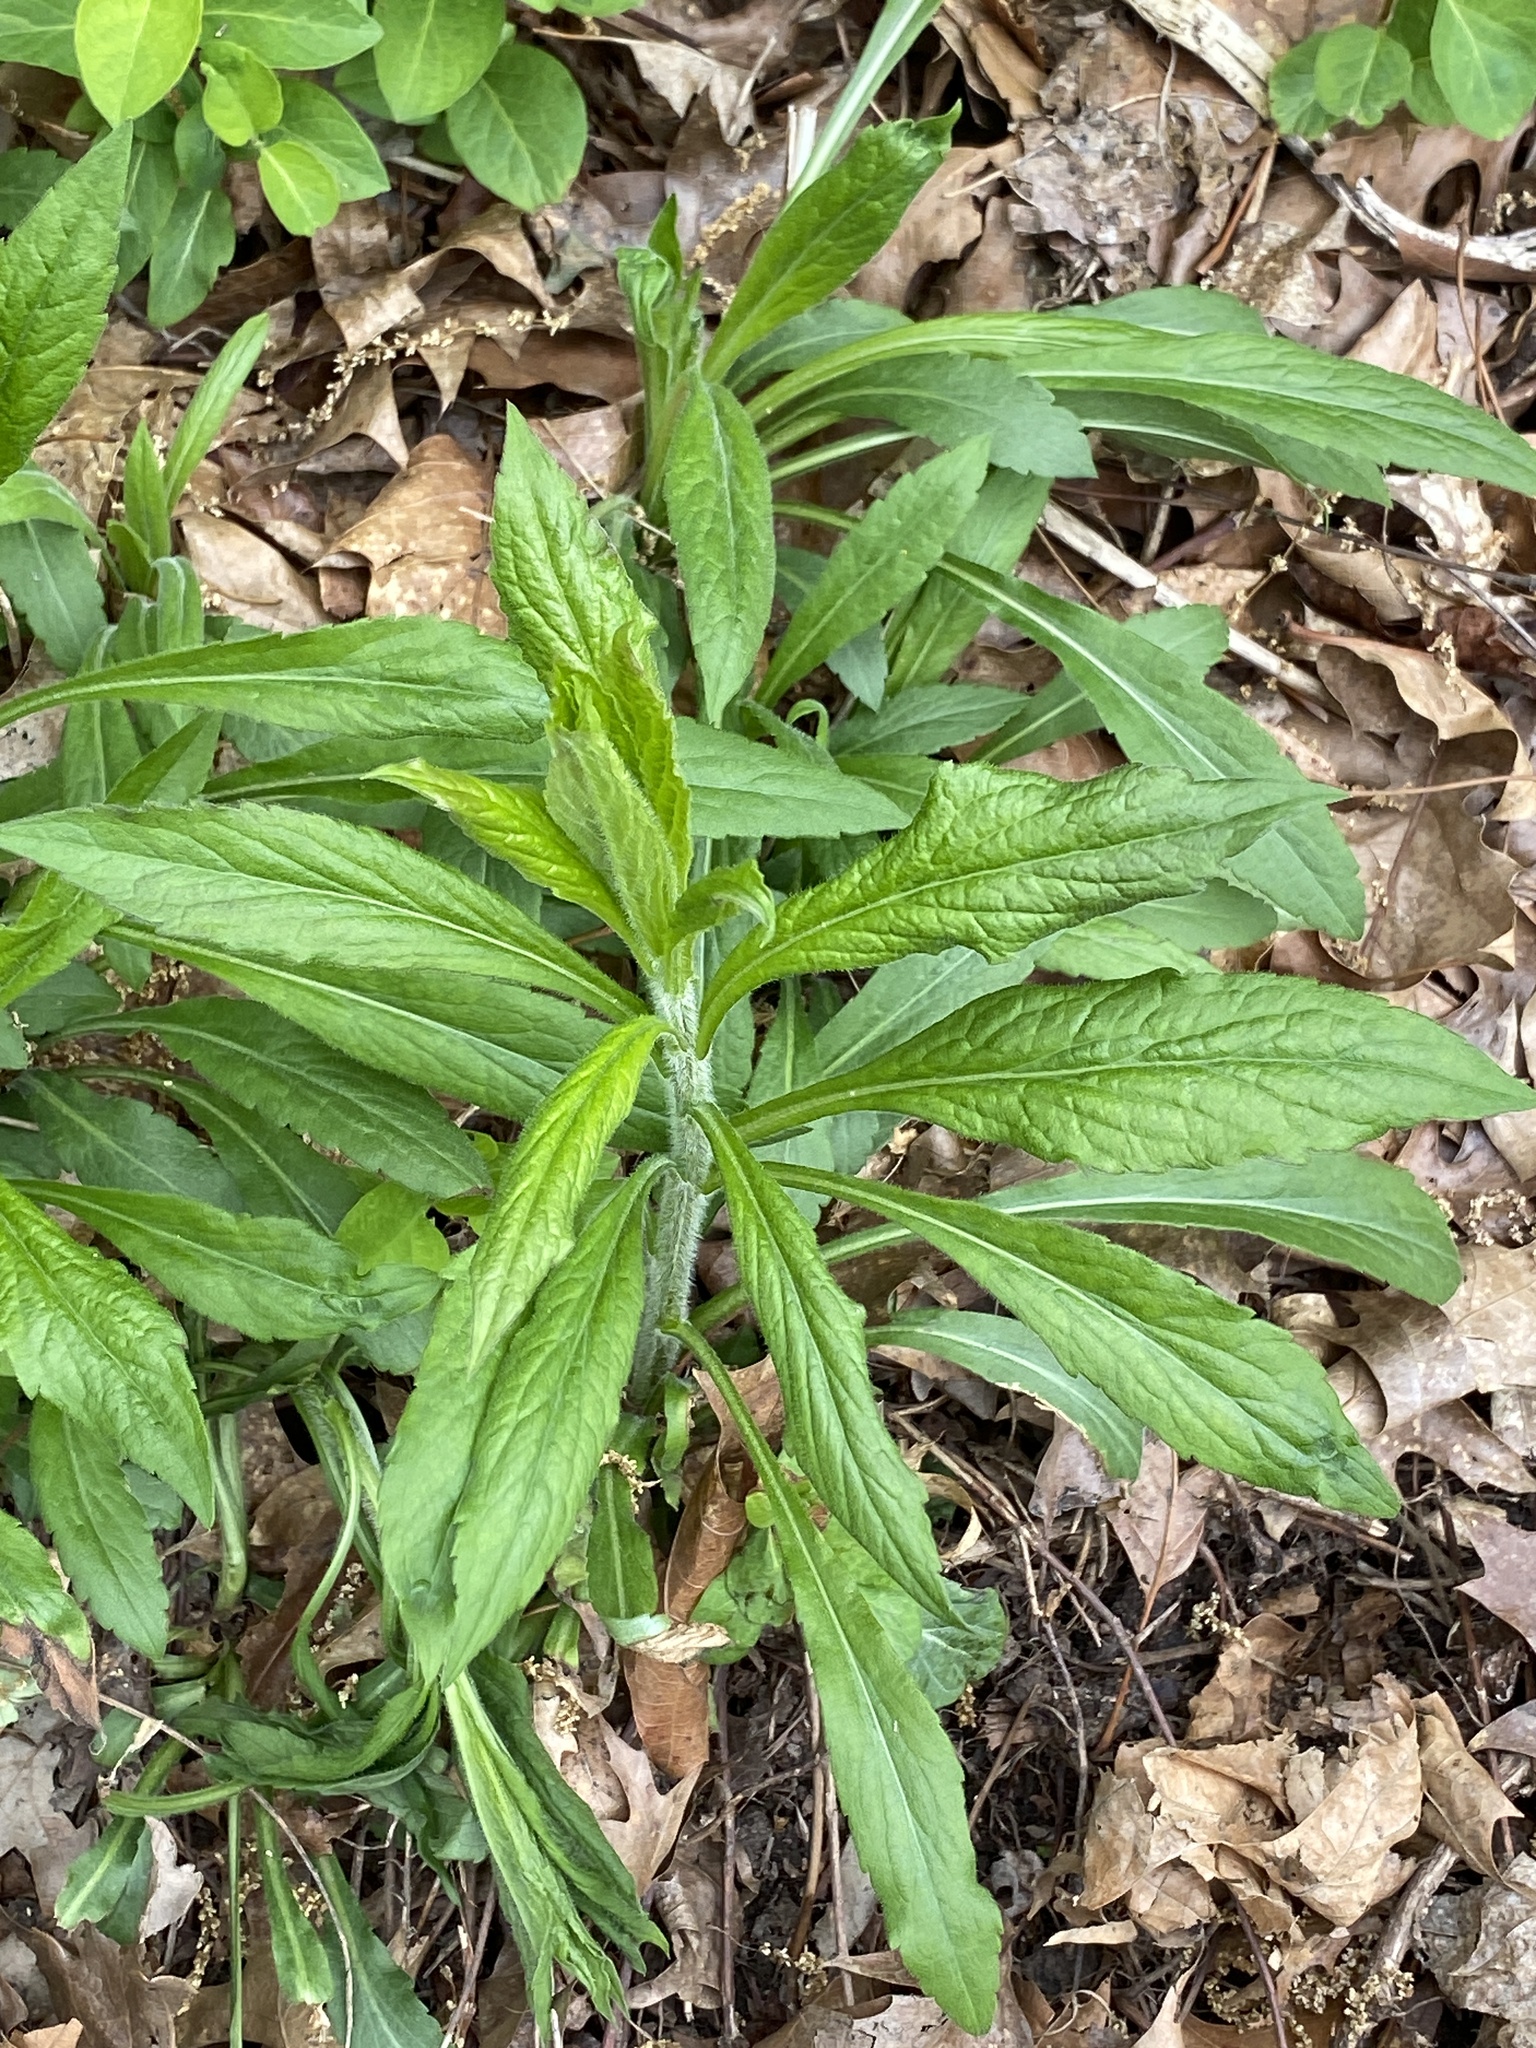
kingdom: Plantae
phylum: Tracheophyta
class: Magnoliopsida
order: Asterales
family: Asteraceae
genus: Solidago
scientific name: Solidago rugosa
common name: Rough-stemmed goldenrod
